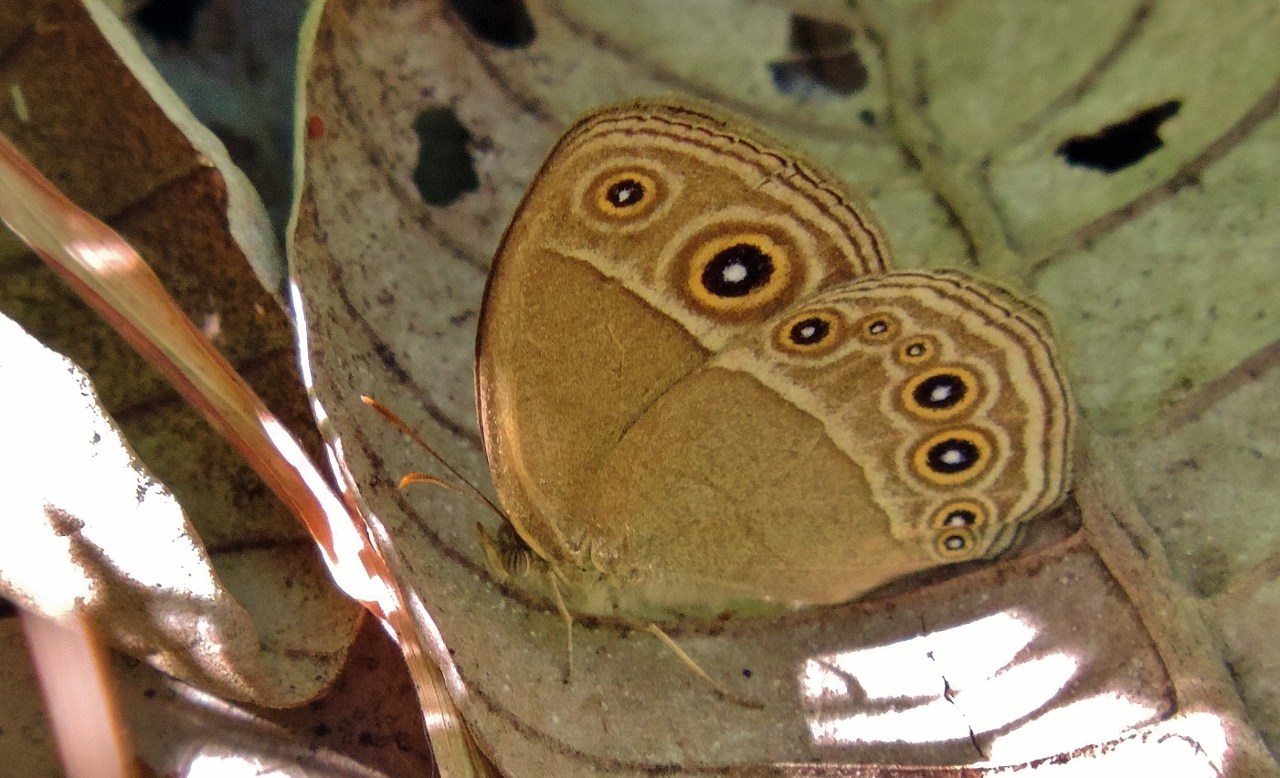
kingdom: Animalia
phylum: Arthropoda
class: Insecta
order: Lepidoptera
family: Nymphalidae
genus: Heteropsis
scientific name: Heteropsis perspicua
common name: Eyed bush brown
